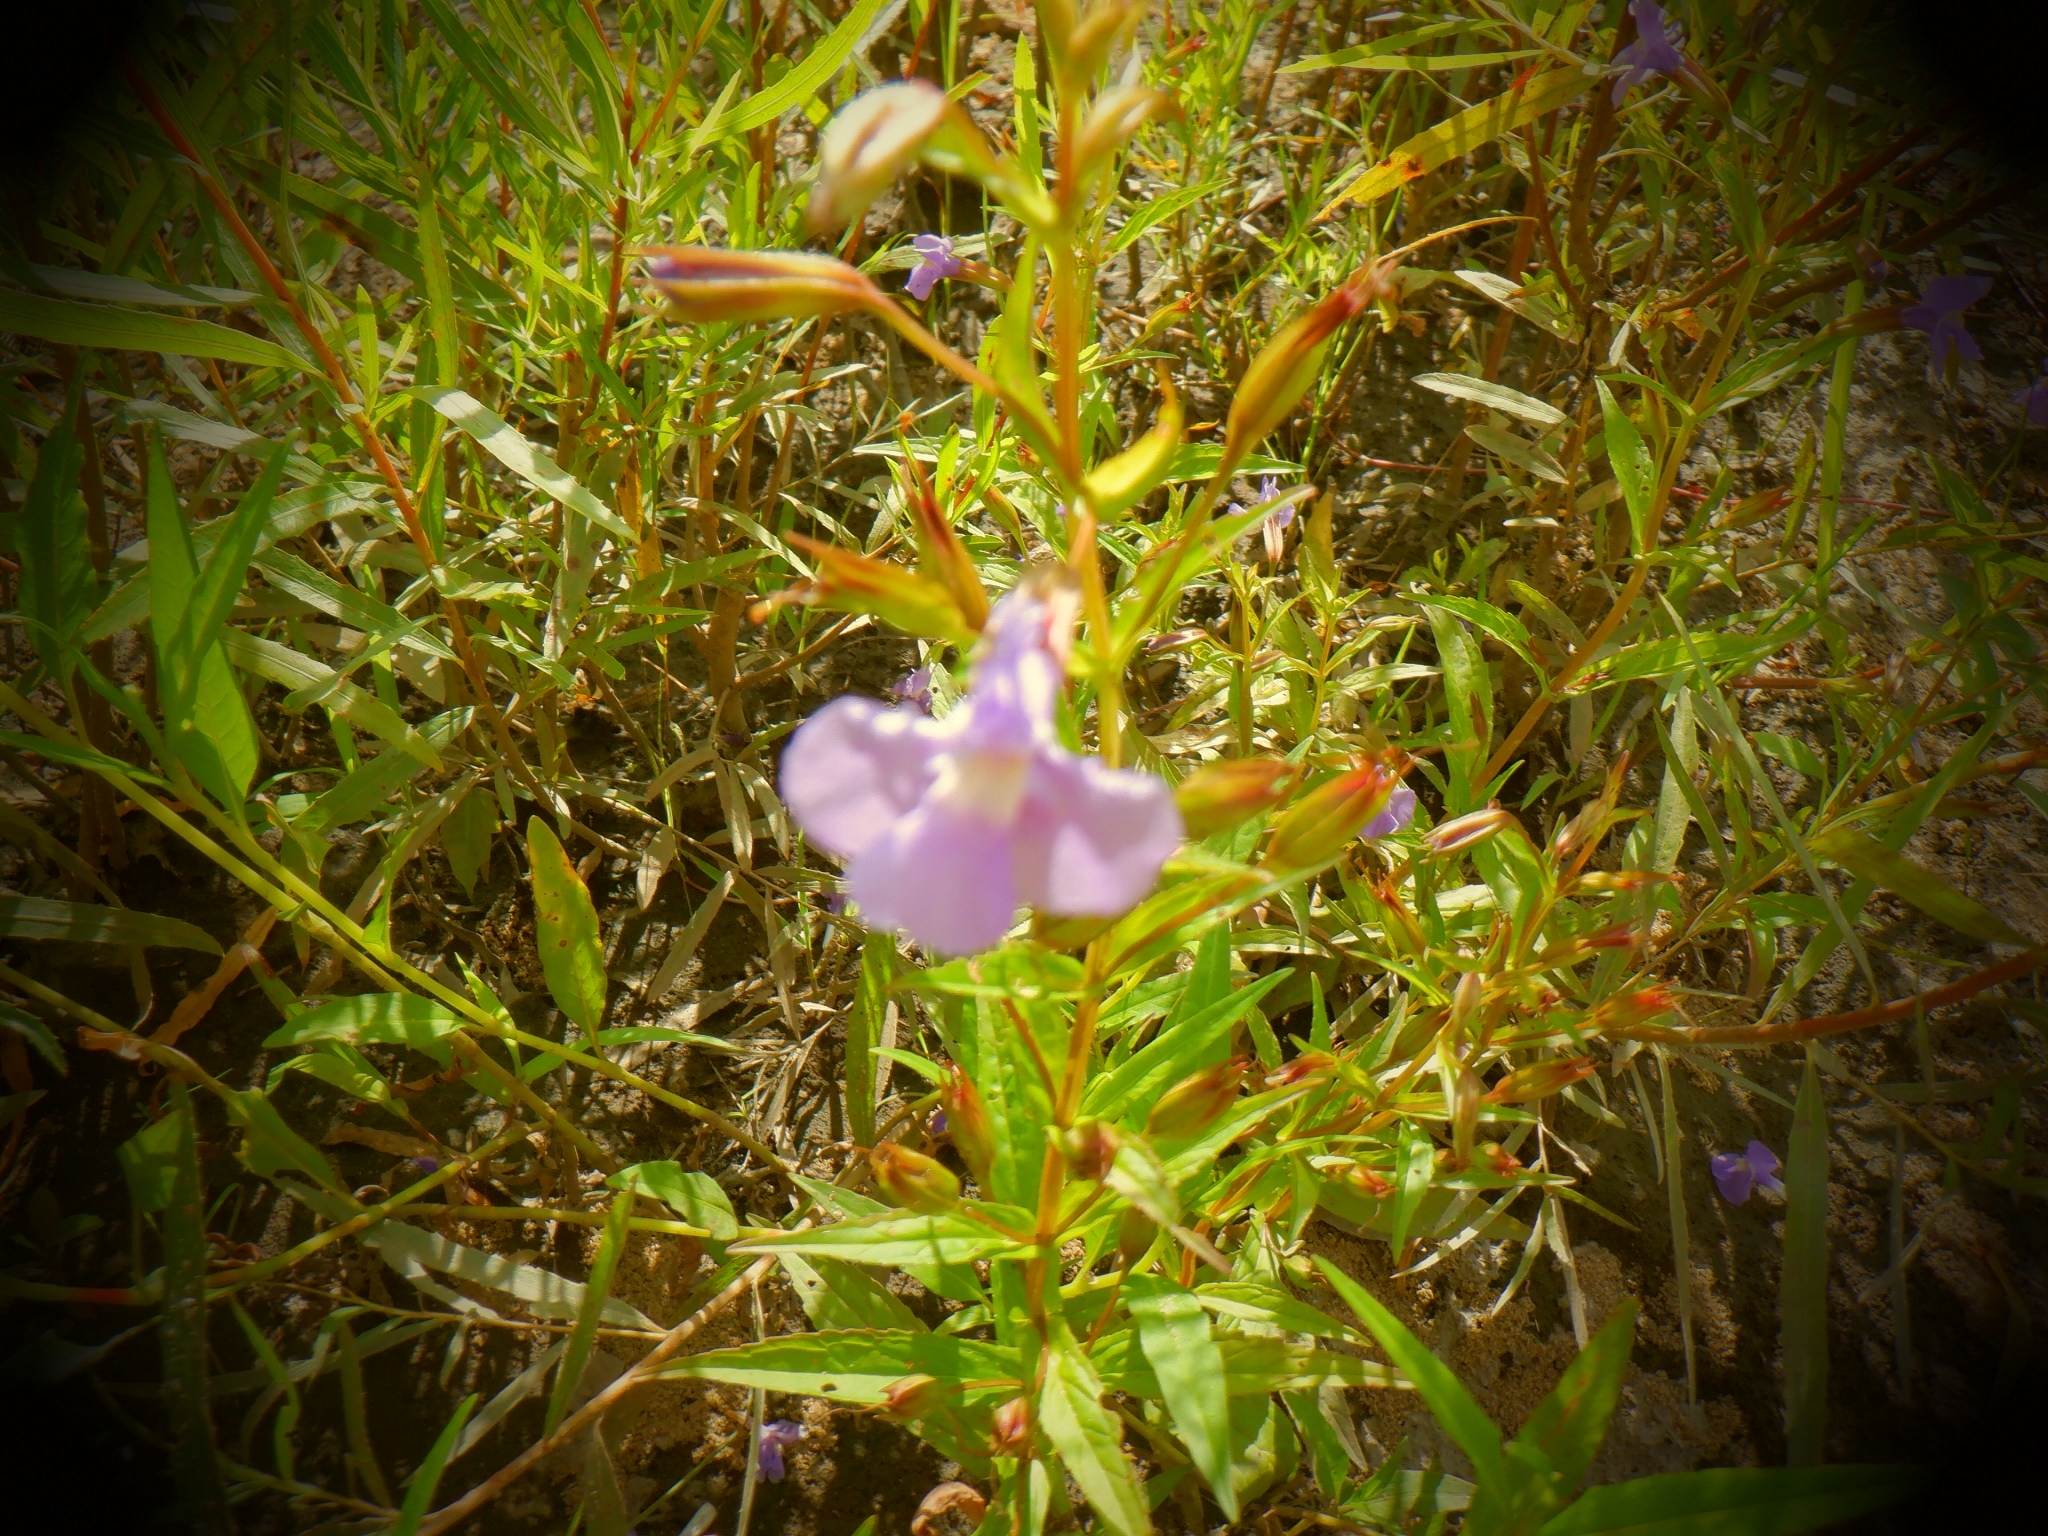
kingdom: Plantae
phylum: Tracheophyta
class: Magnoliopsida
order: Lamiales
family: Phrymaceae
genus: Mimulus
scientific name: Mimulus ringens
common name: Allegheny monkeyflower
